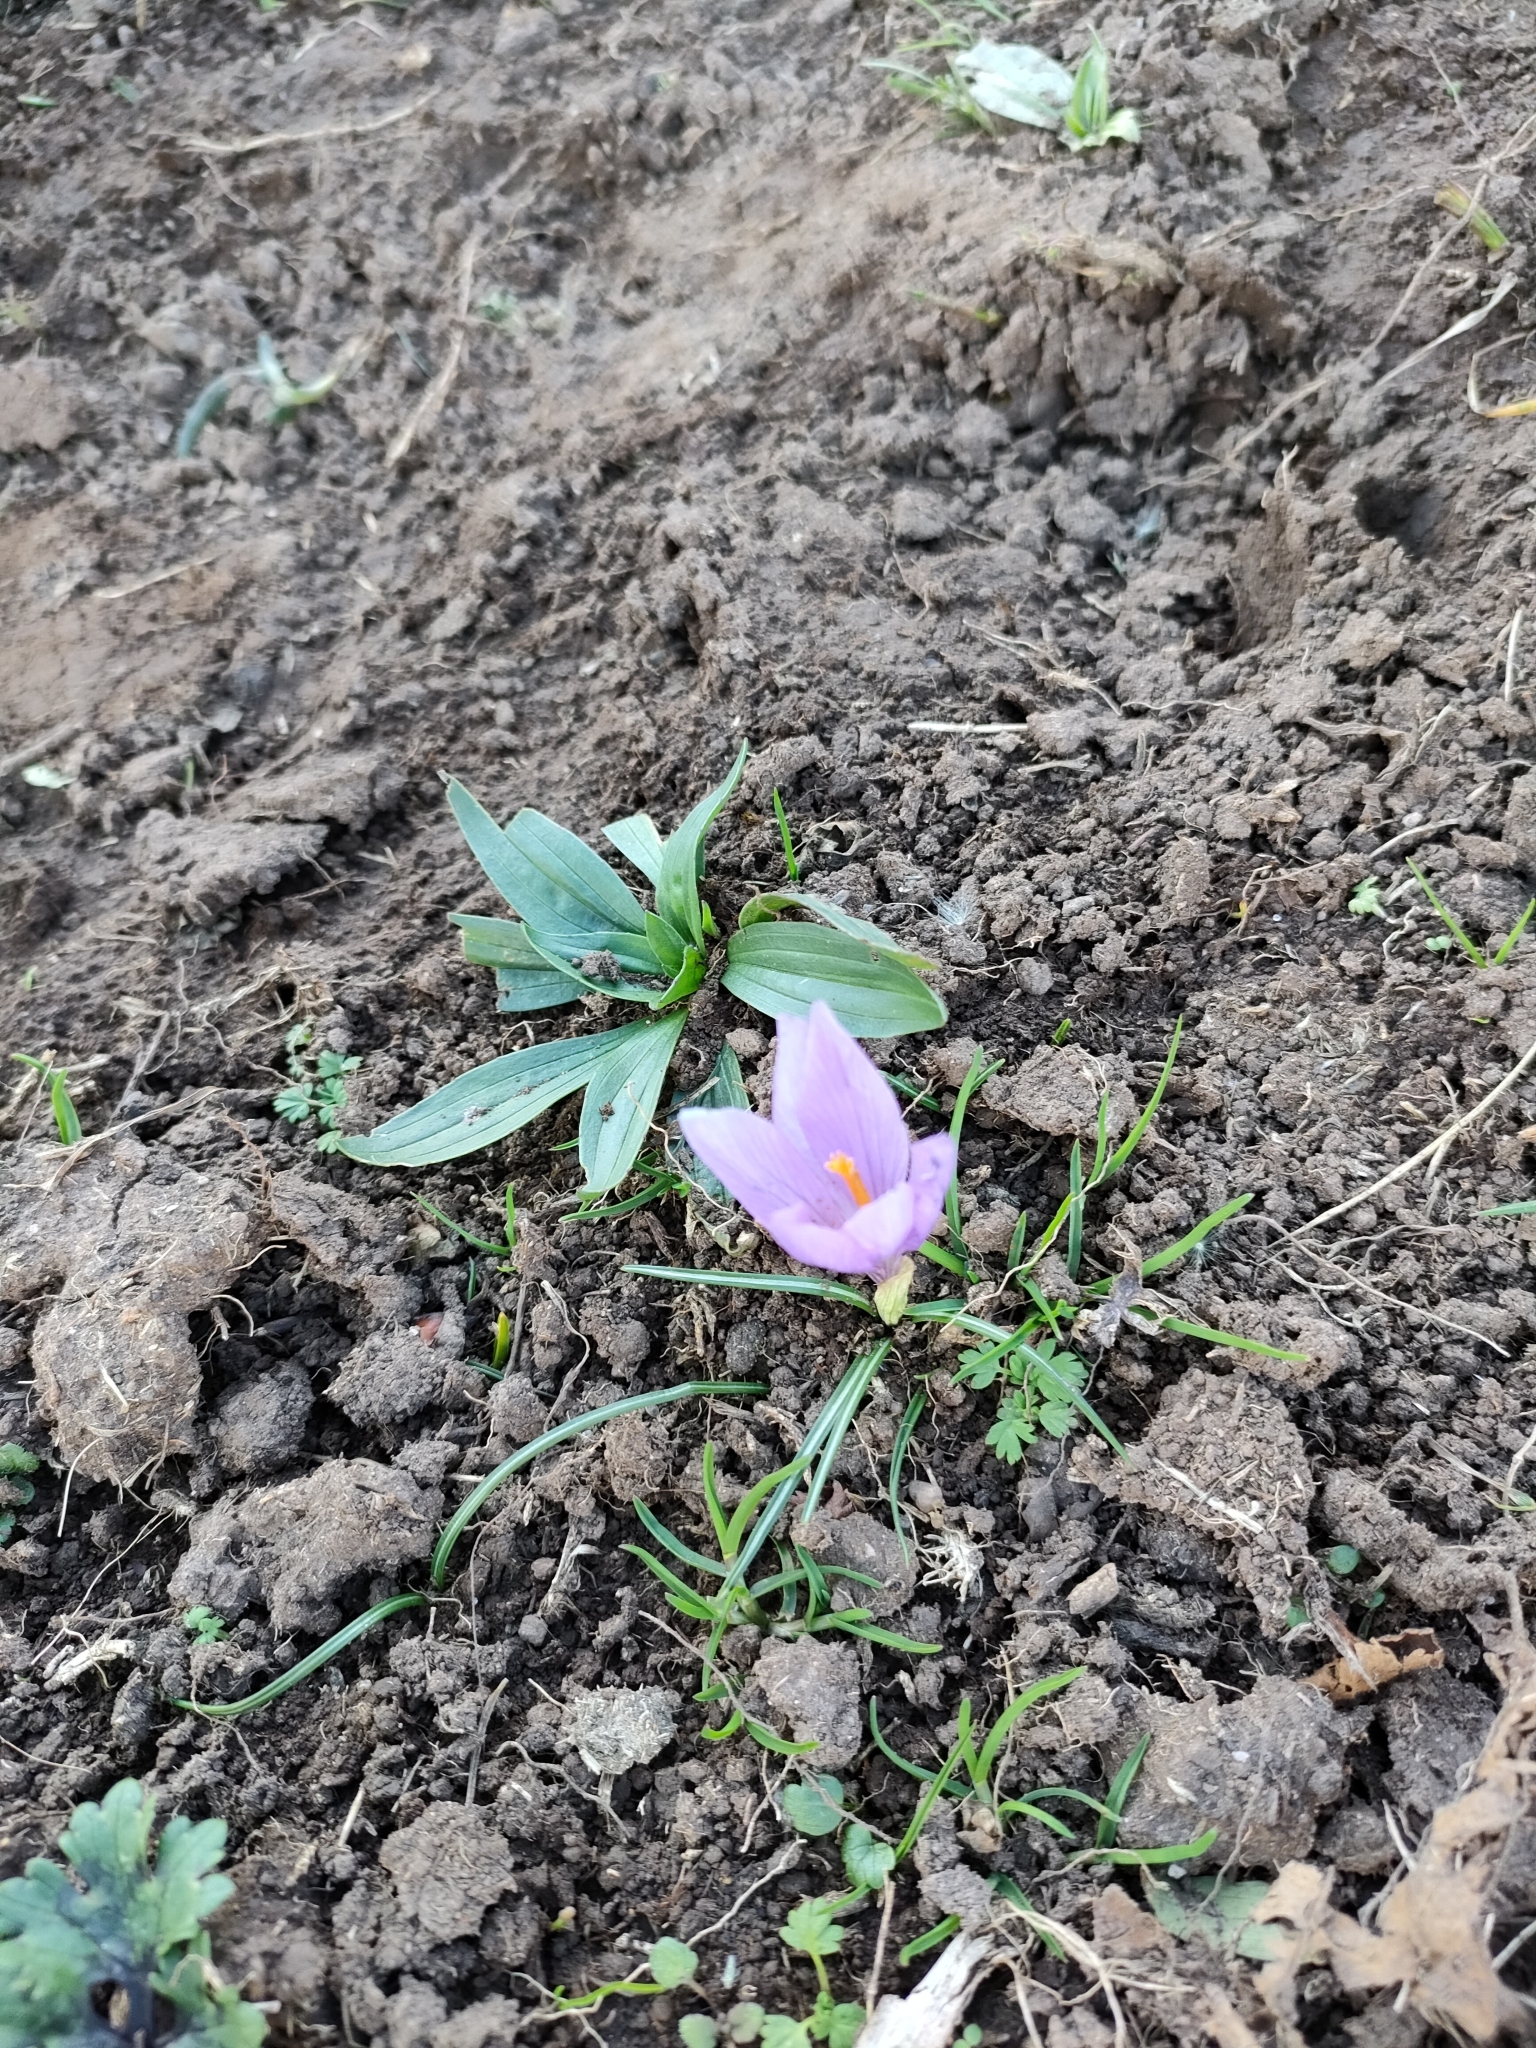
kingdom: Plantae
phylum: Tracheophyta
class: Liliopsida
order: Asparagales
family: Iridaceae
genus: Crocus
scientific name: Crocus serotinus
